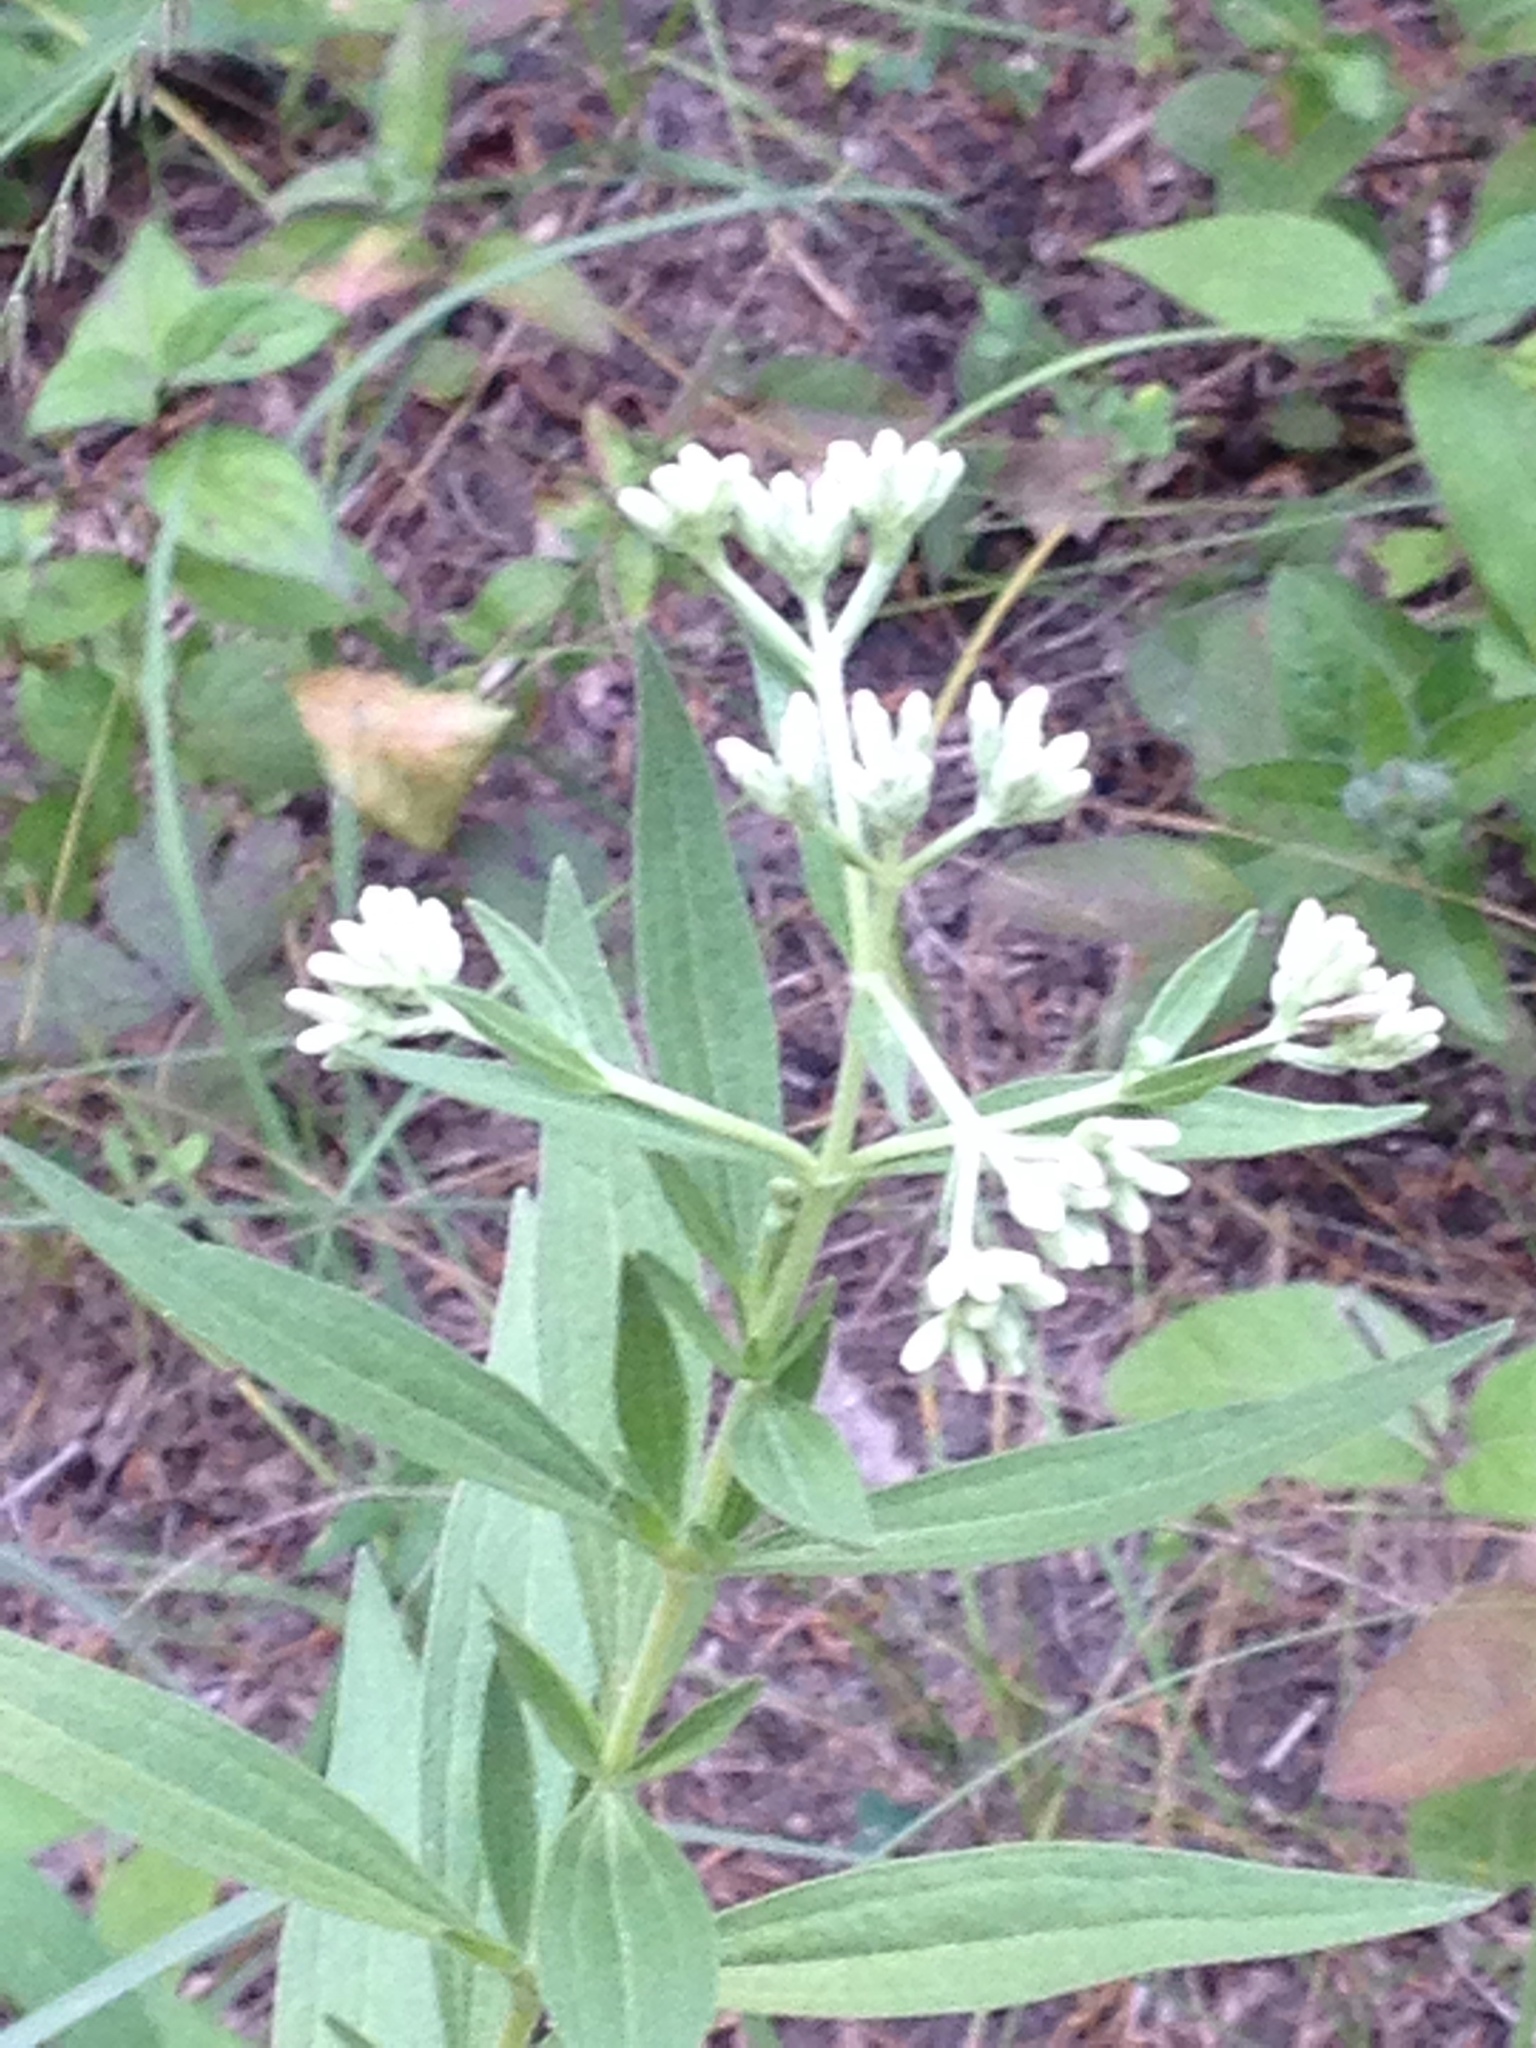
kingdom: Plantae
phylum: Tracheophyta
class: Magnoliopsida
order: Asterales
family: Asteraceae
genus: Eupatorium
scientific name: Eupatorium altissimum
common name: Tall thoroughwort
